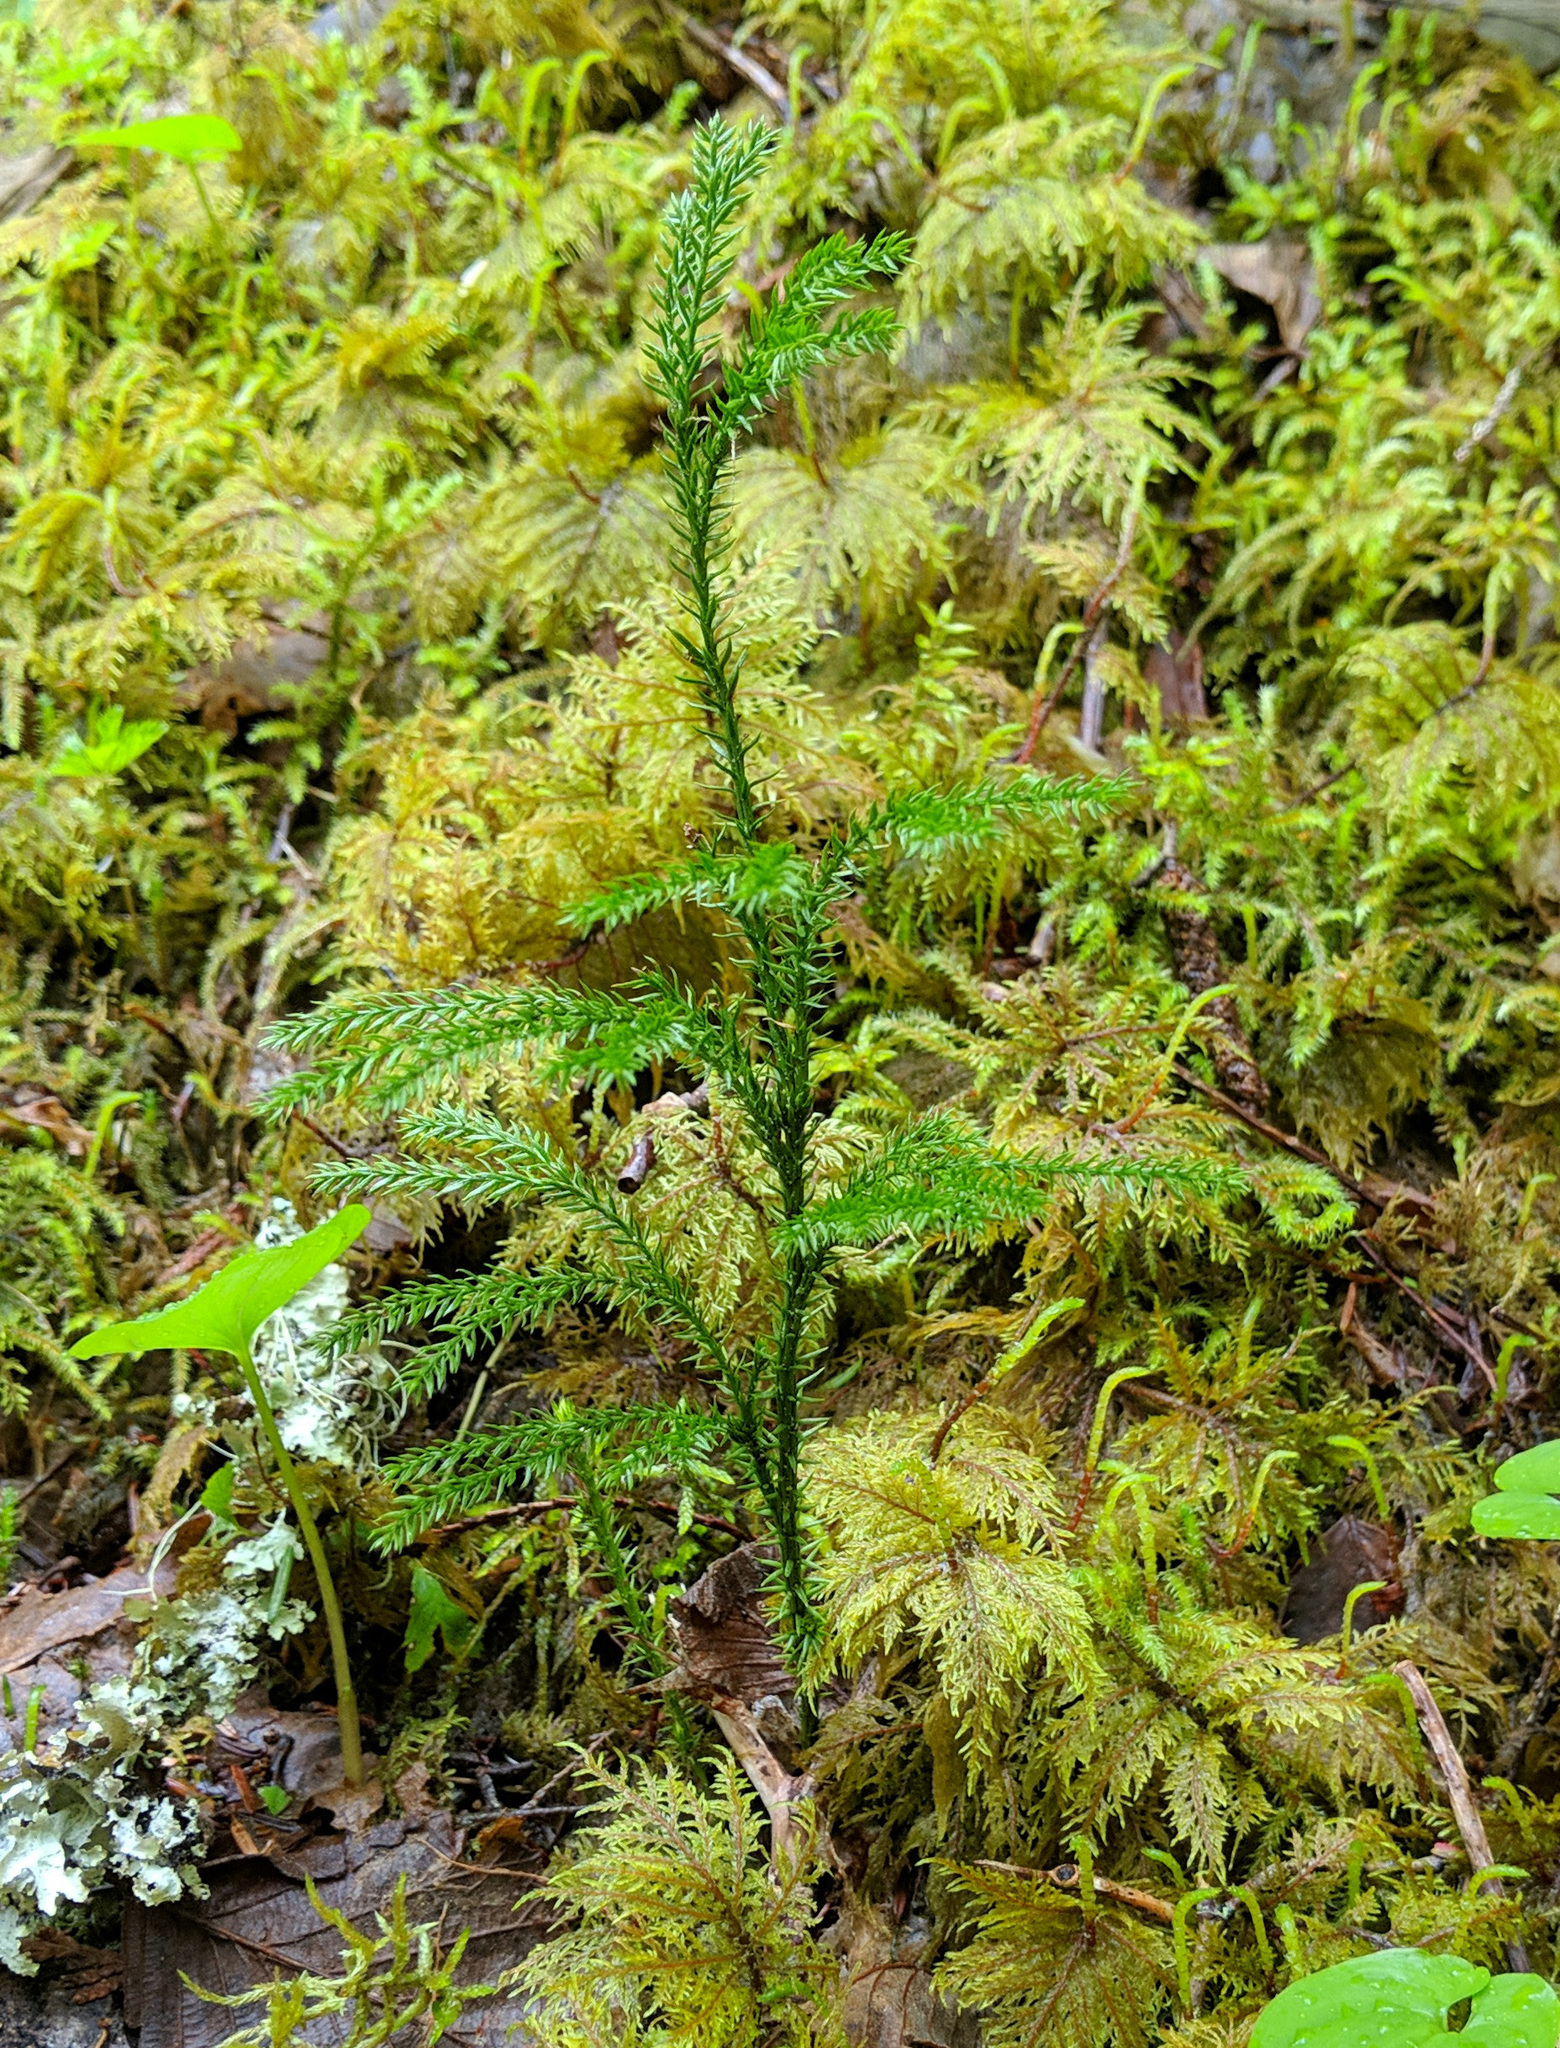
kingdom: Plantae
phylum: Tracheophyta
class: Lycopodiopsida
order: Lycopodiales
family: Lycopodiaceae
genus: Dendrolycopodium
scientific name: Dendrolycopodium dendroideum
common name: Northern tree-clubmoss
